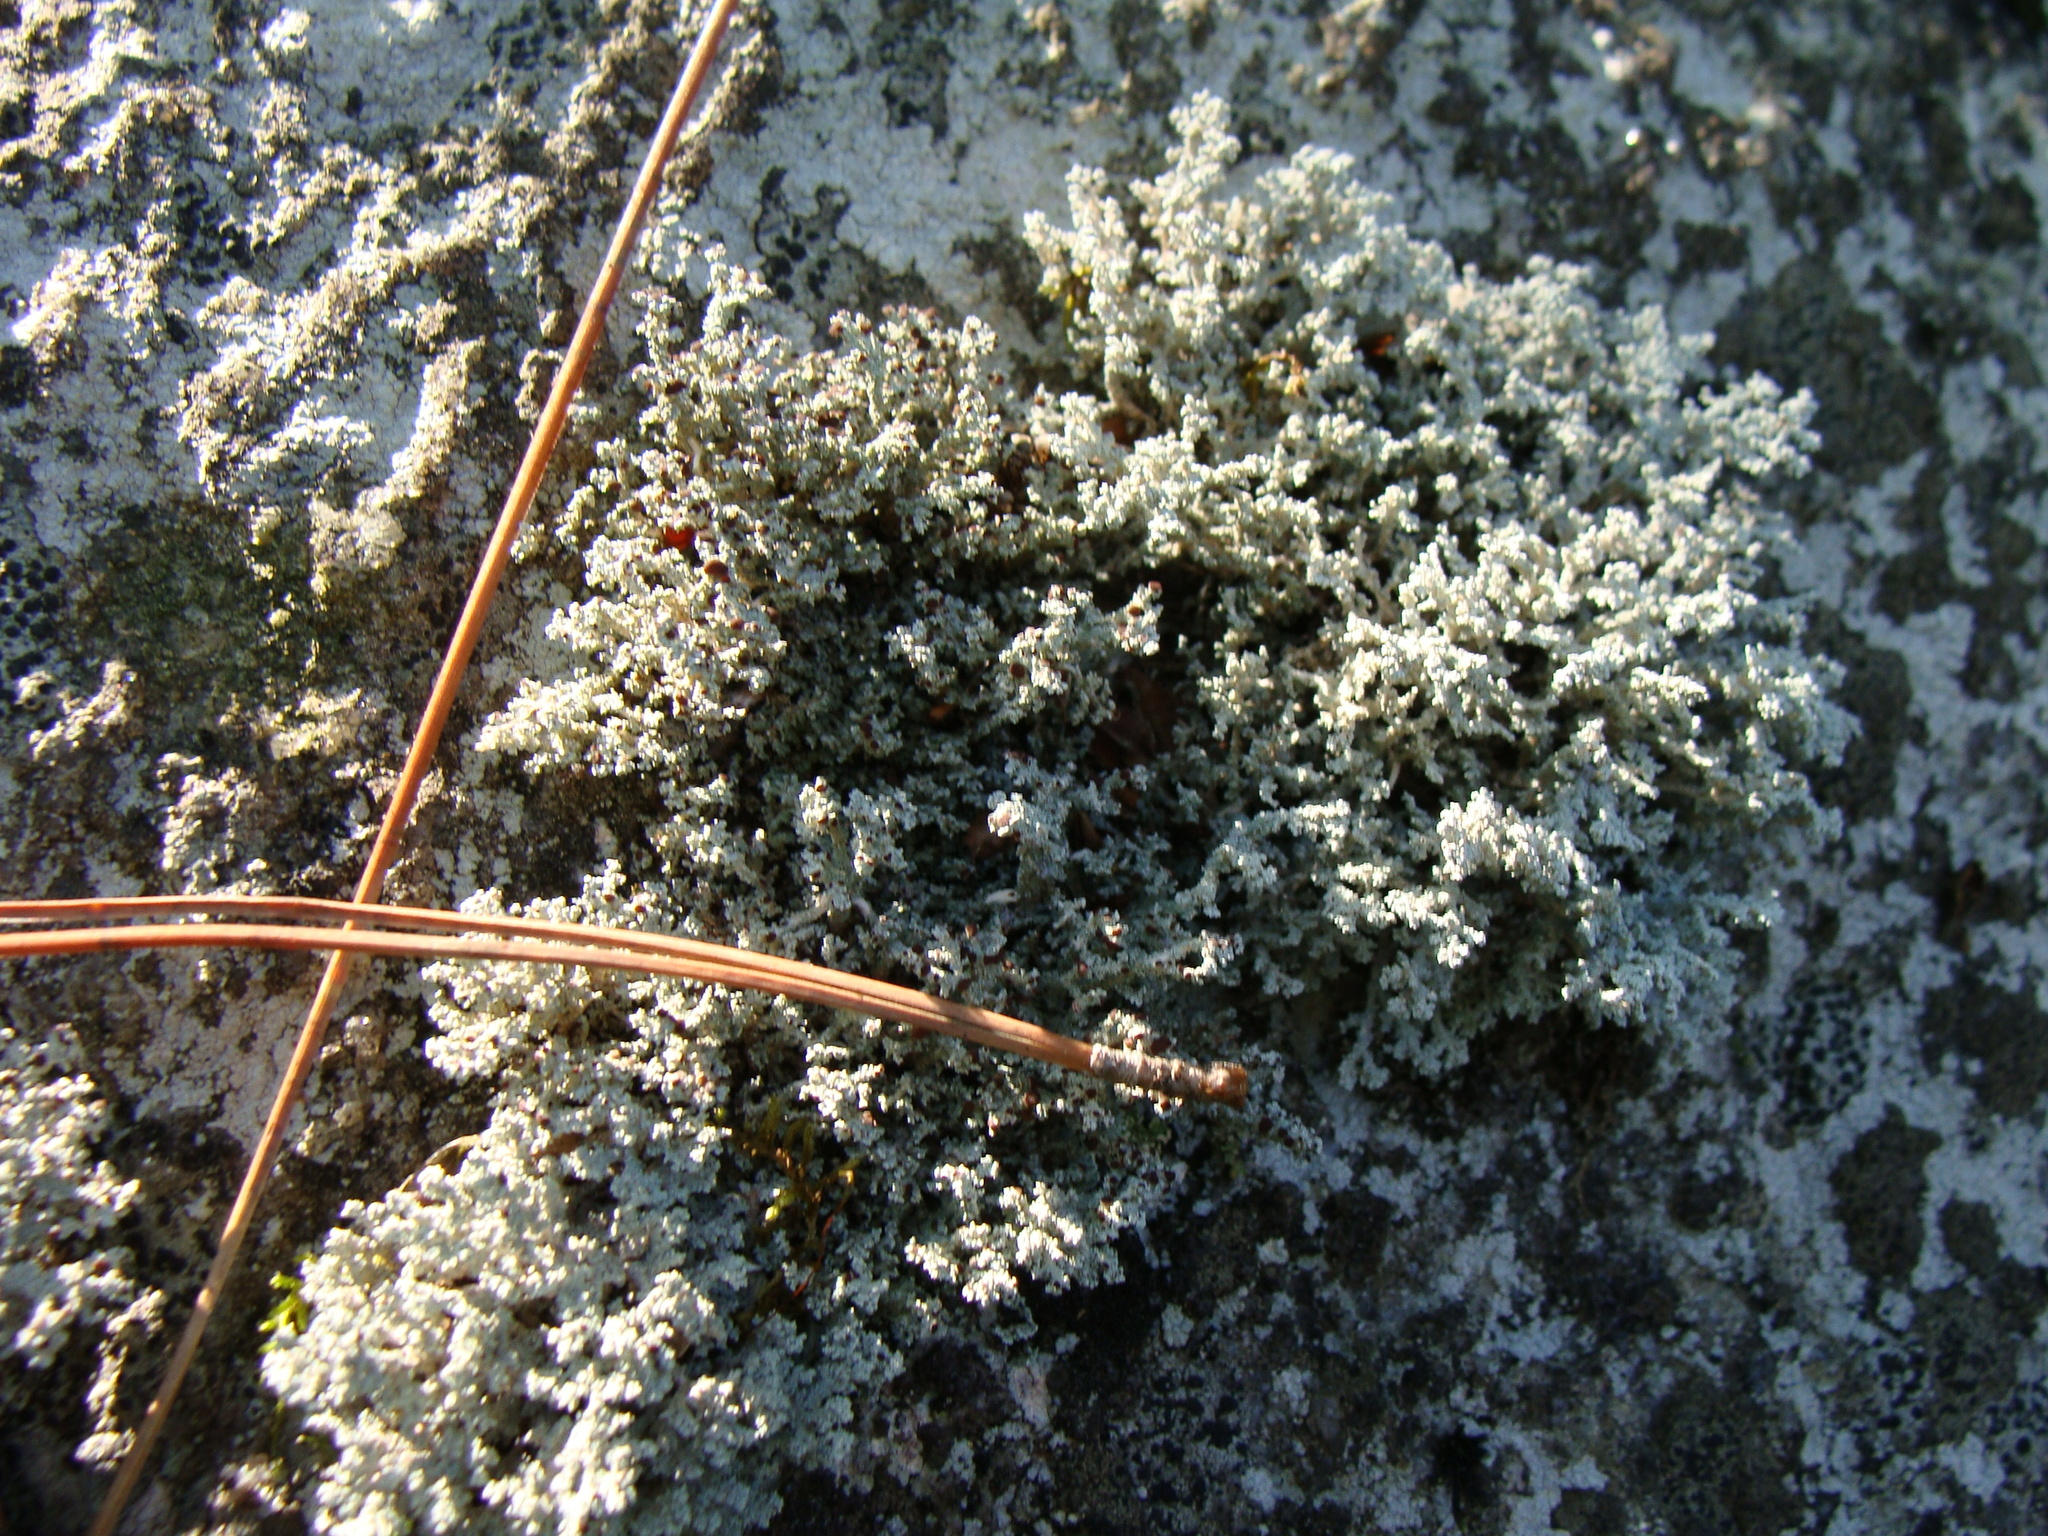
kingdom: Fungi
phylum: Ascomycota
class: Lecanoromycetes
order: Lecanorales
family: Stereocaulaceae
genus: Stereocaulon
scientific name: Stereocaulon
